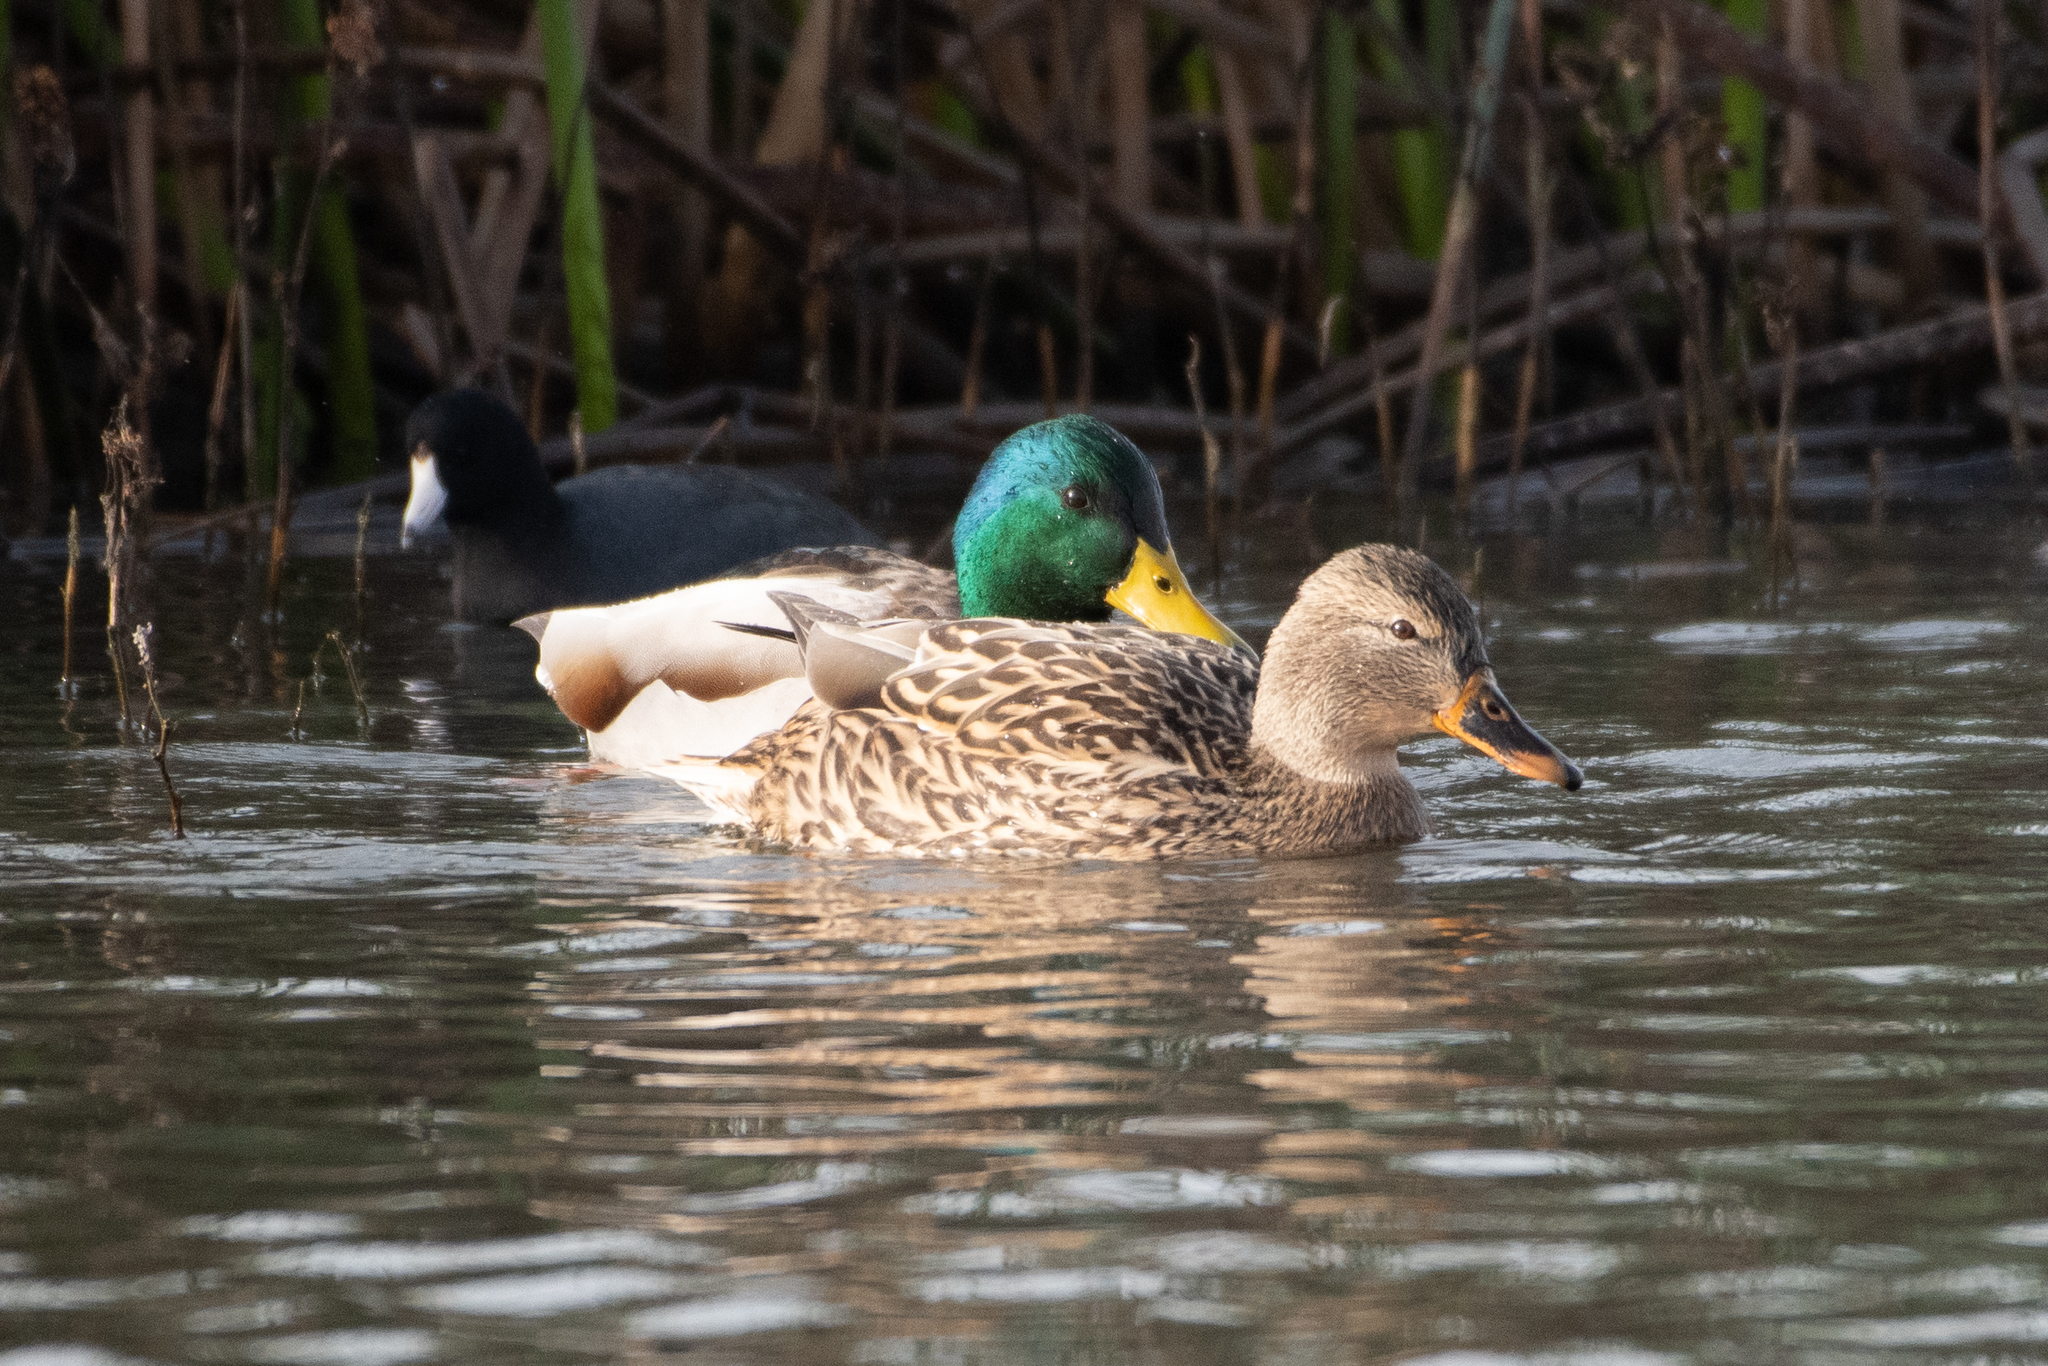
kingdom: Animalia
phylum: Chordata
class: Aves
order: Anseriformes
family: Anatidae
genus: Anas
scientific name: Anas platyrhynchos
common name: Mallard
